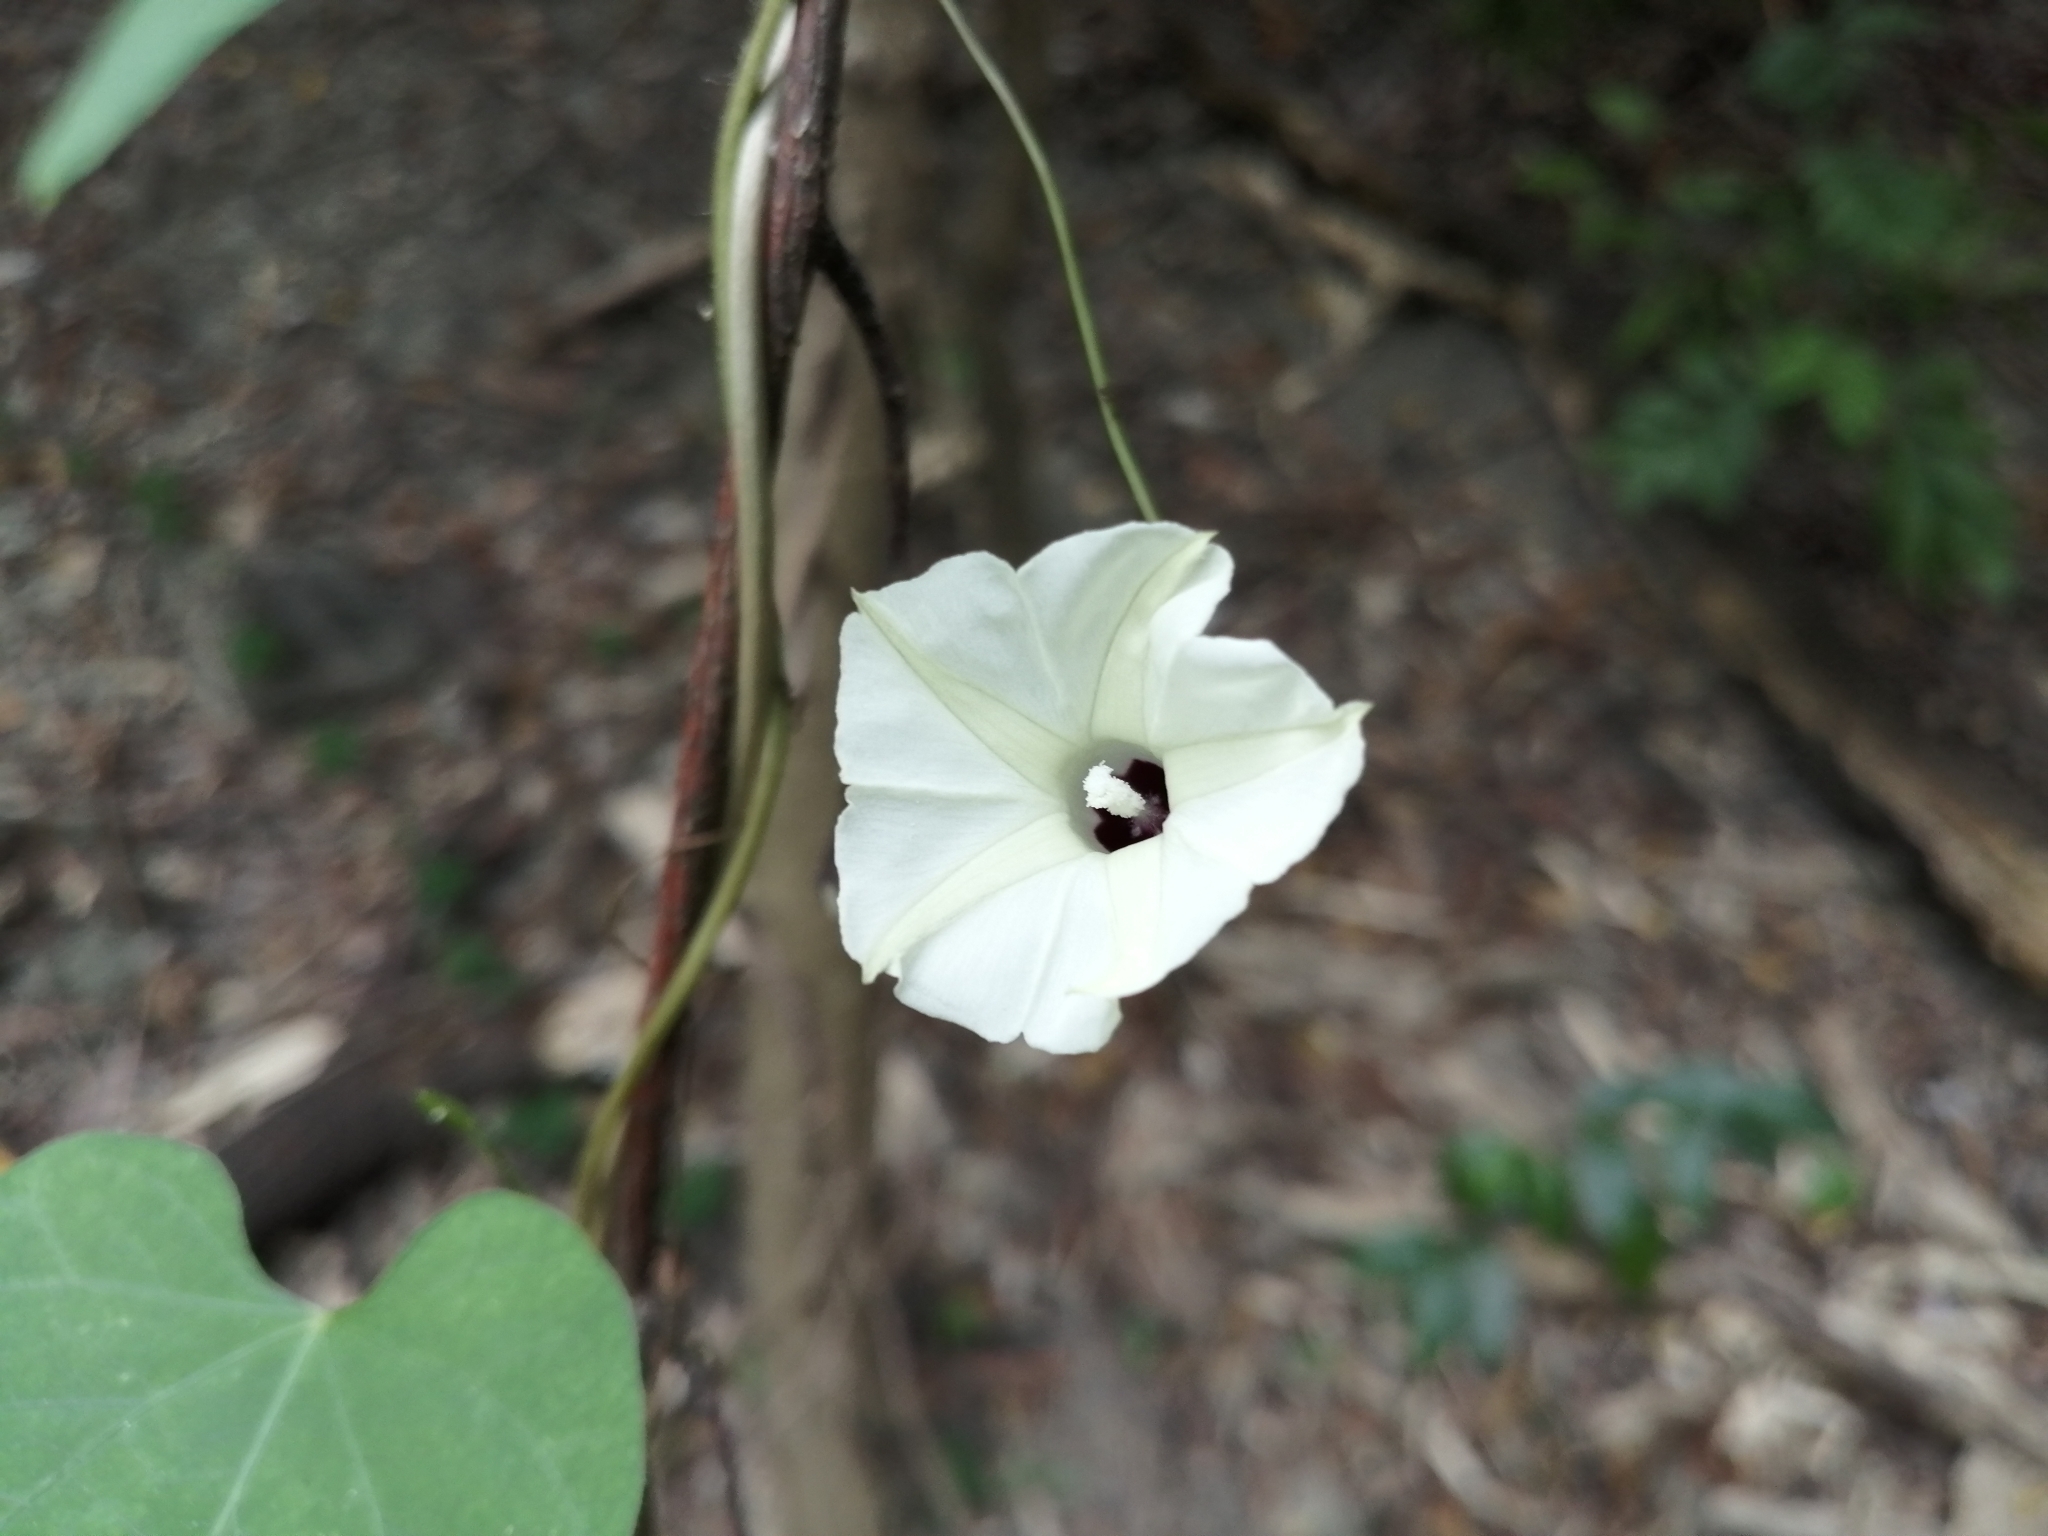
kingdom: Plantae
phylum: Tracheophyta
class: Magnoliopsida
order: Solanales
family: Convolvulaceae
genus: Ipomoea
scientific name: Ipomoea obscura
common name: Obscure morning-glory
